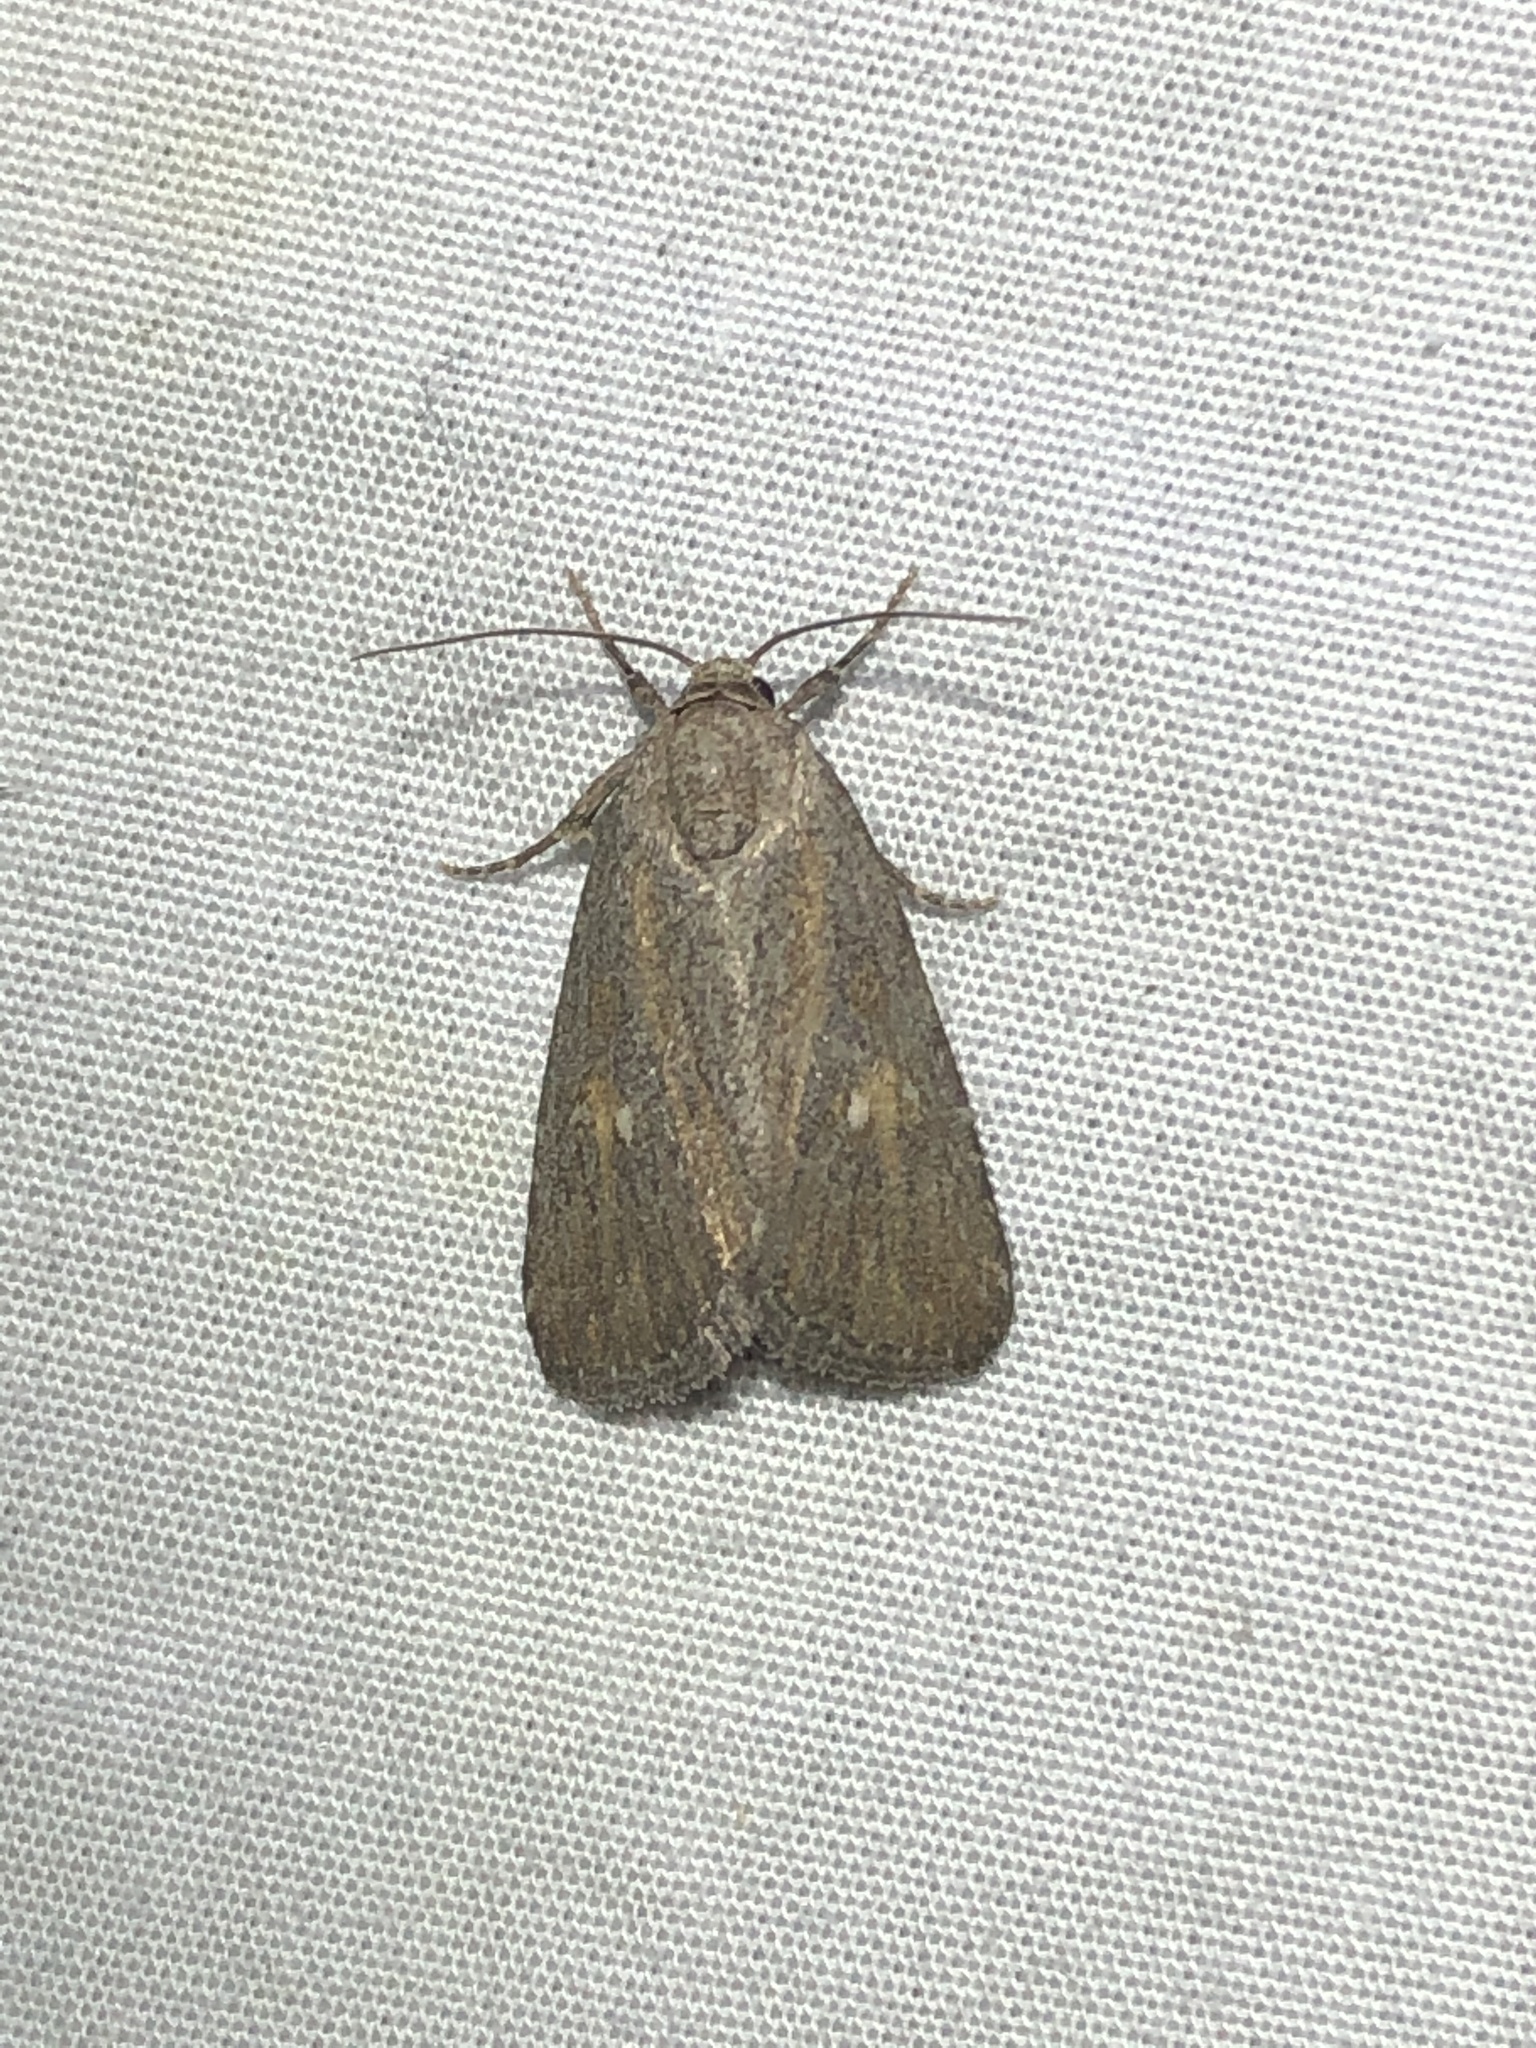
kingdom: Animalia
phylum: Arthropoda
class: Insecta
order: Lepidoptera
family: Noctuidae
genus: Condica
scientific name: Condica begallo
